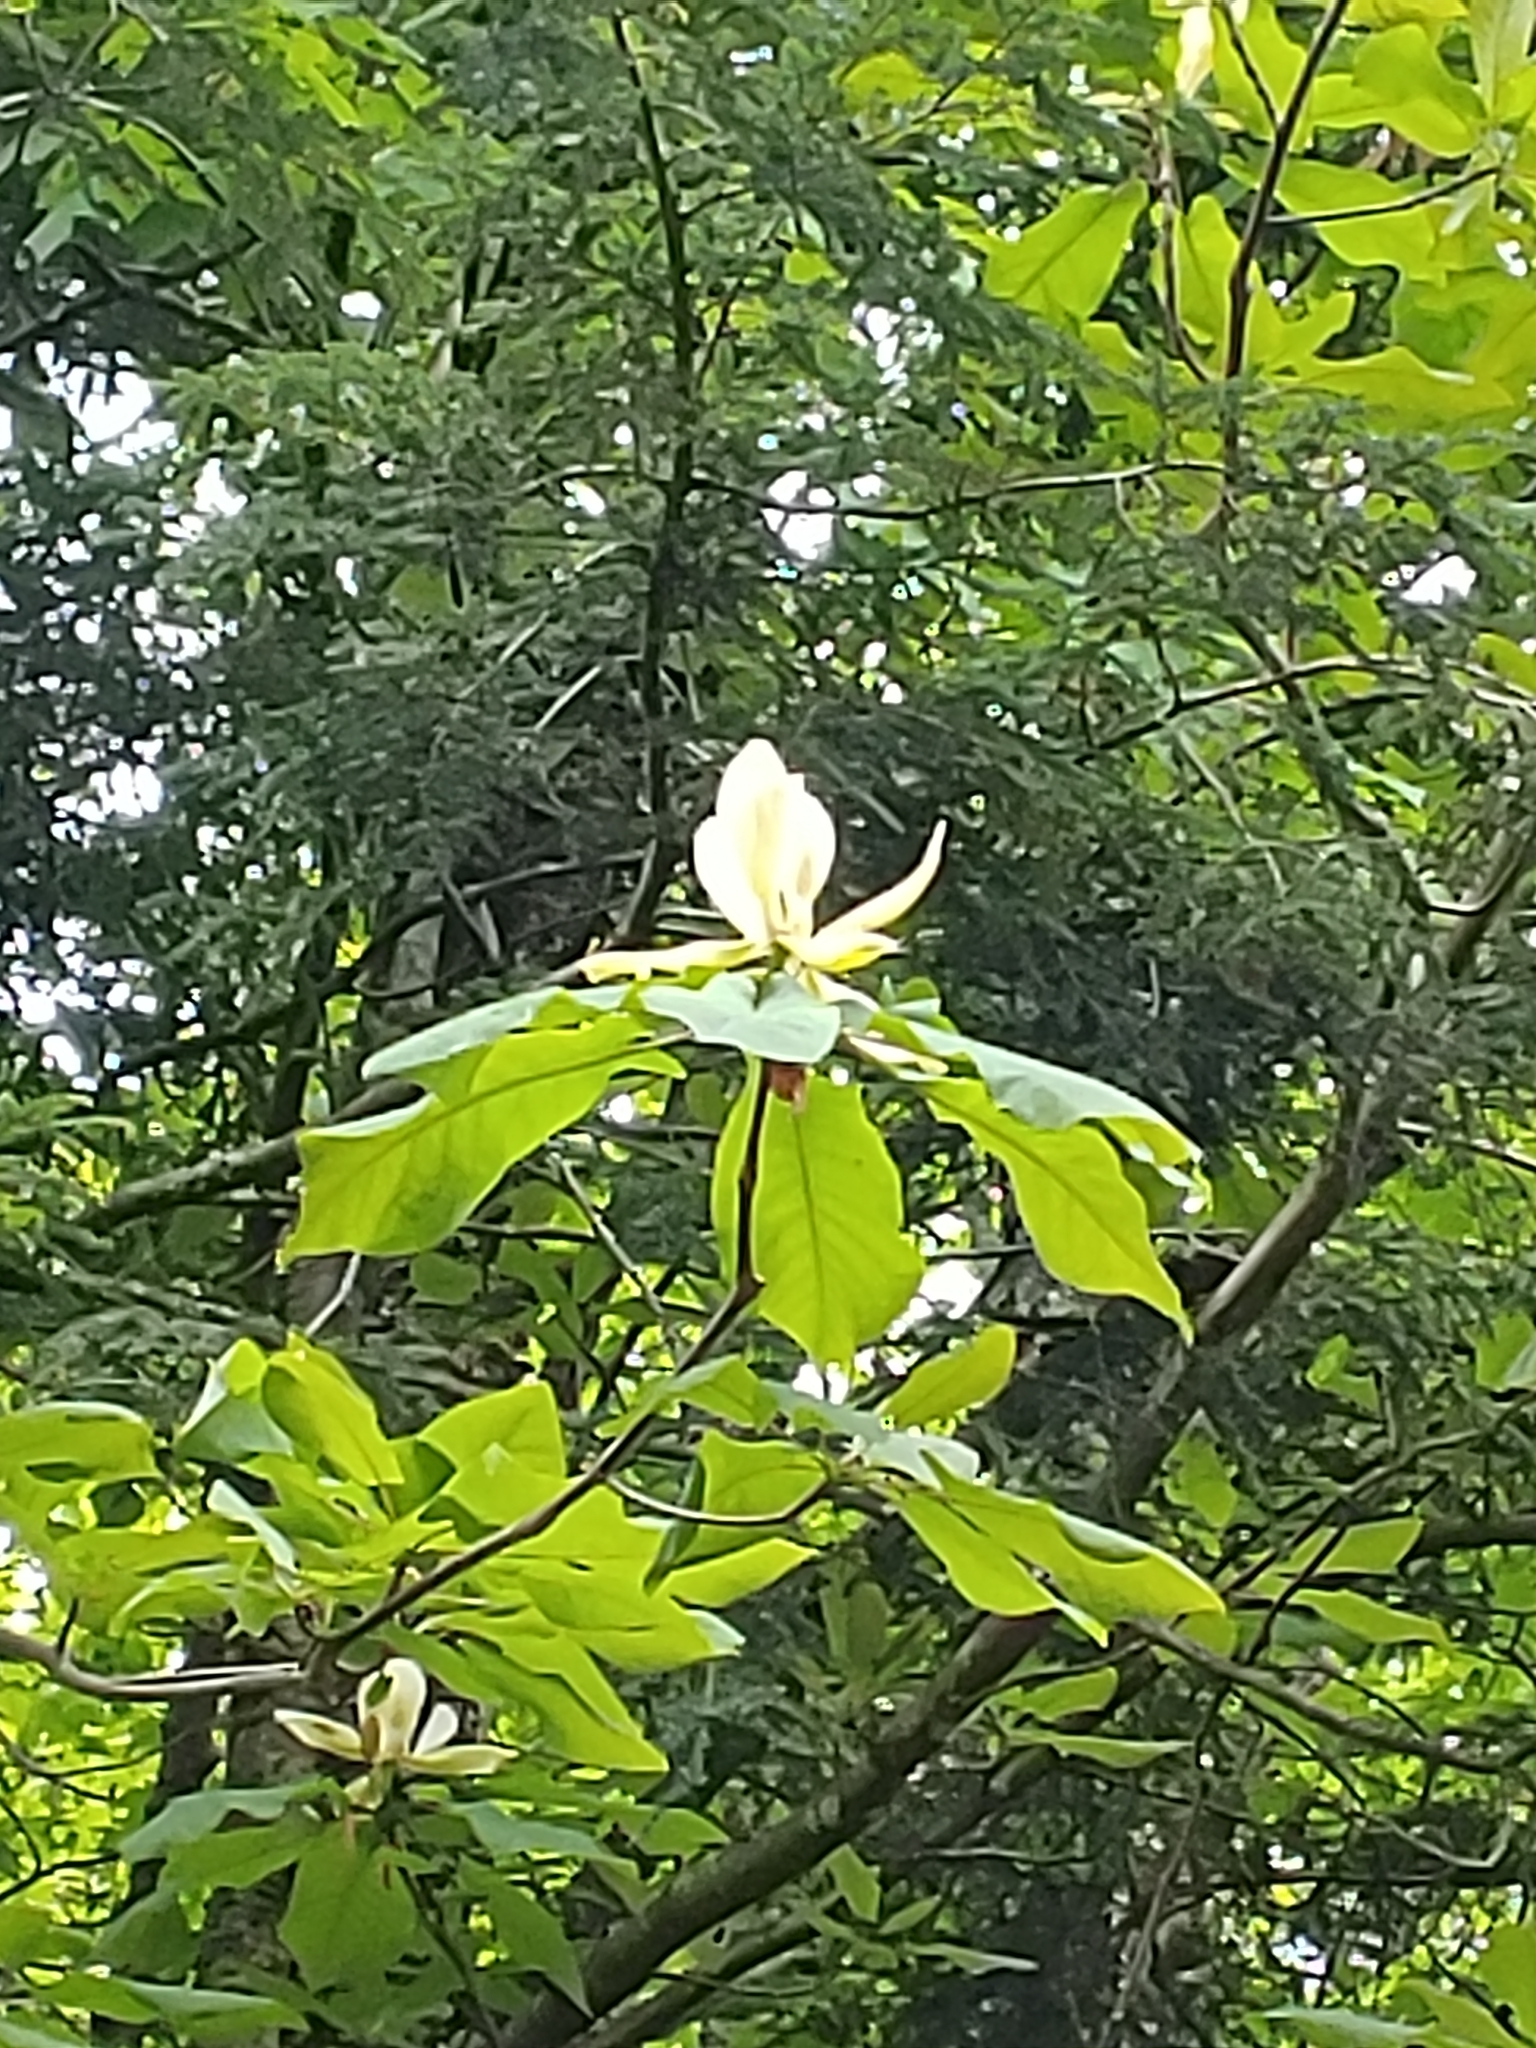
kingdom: Plantae
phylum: Tracheophyta
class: Magnoliopsida
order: Magnoliales
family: Magnoliaceae
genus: Magnolia
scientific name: Magnolia fraseri
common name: Fraser's magnolia
